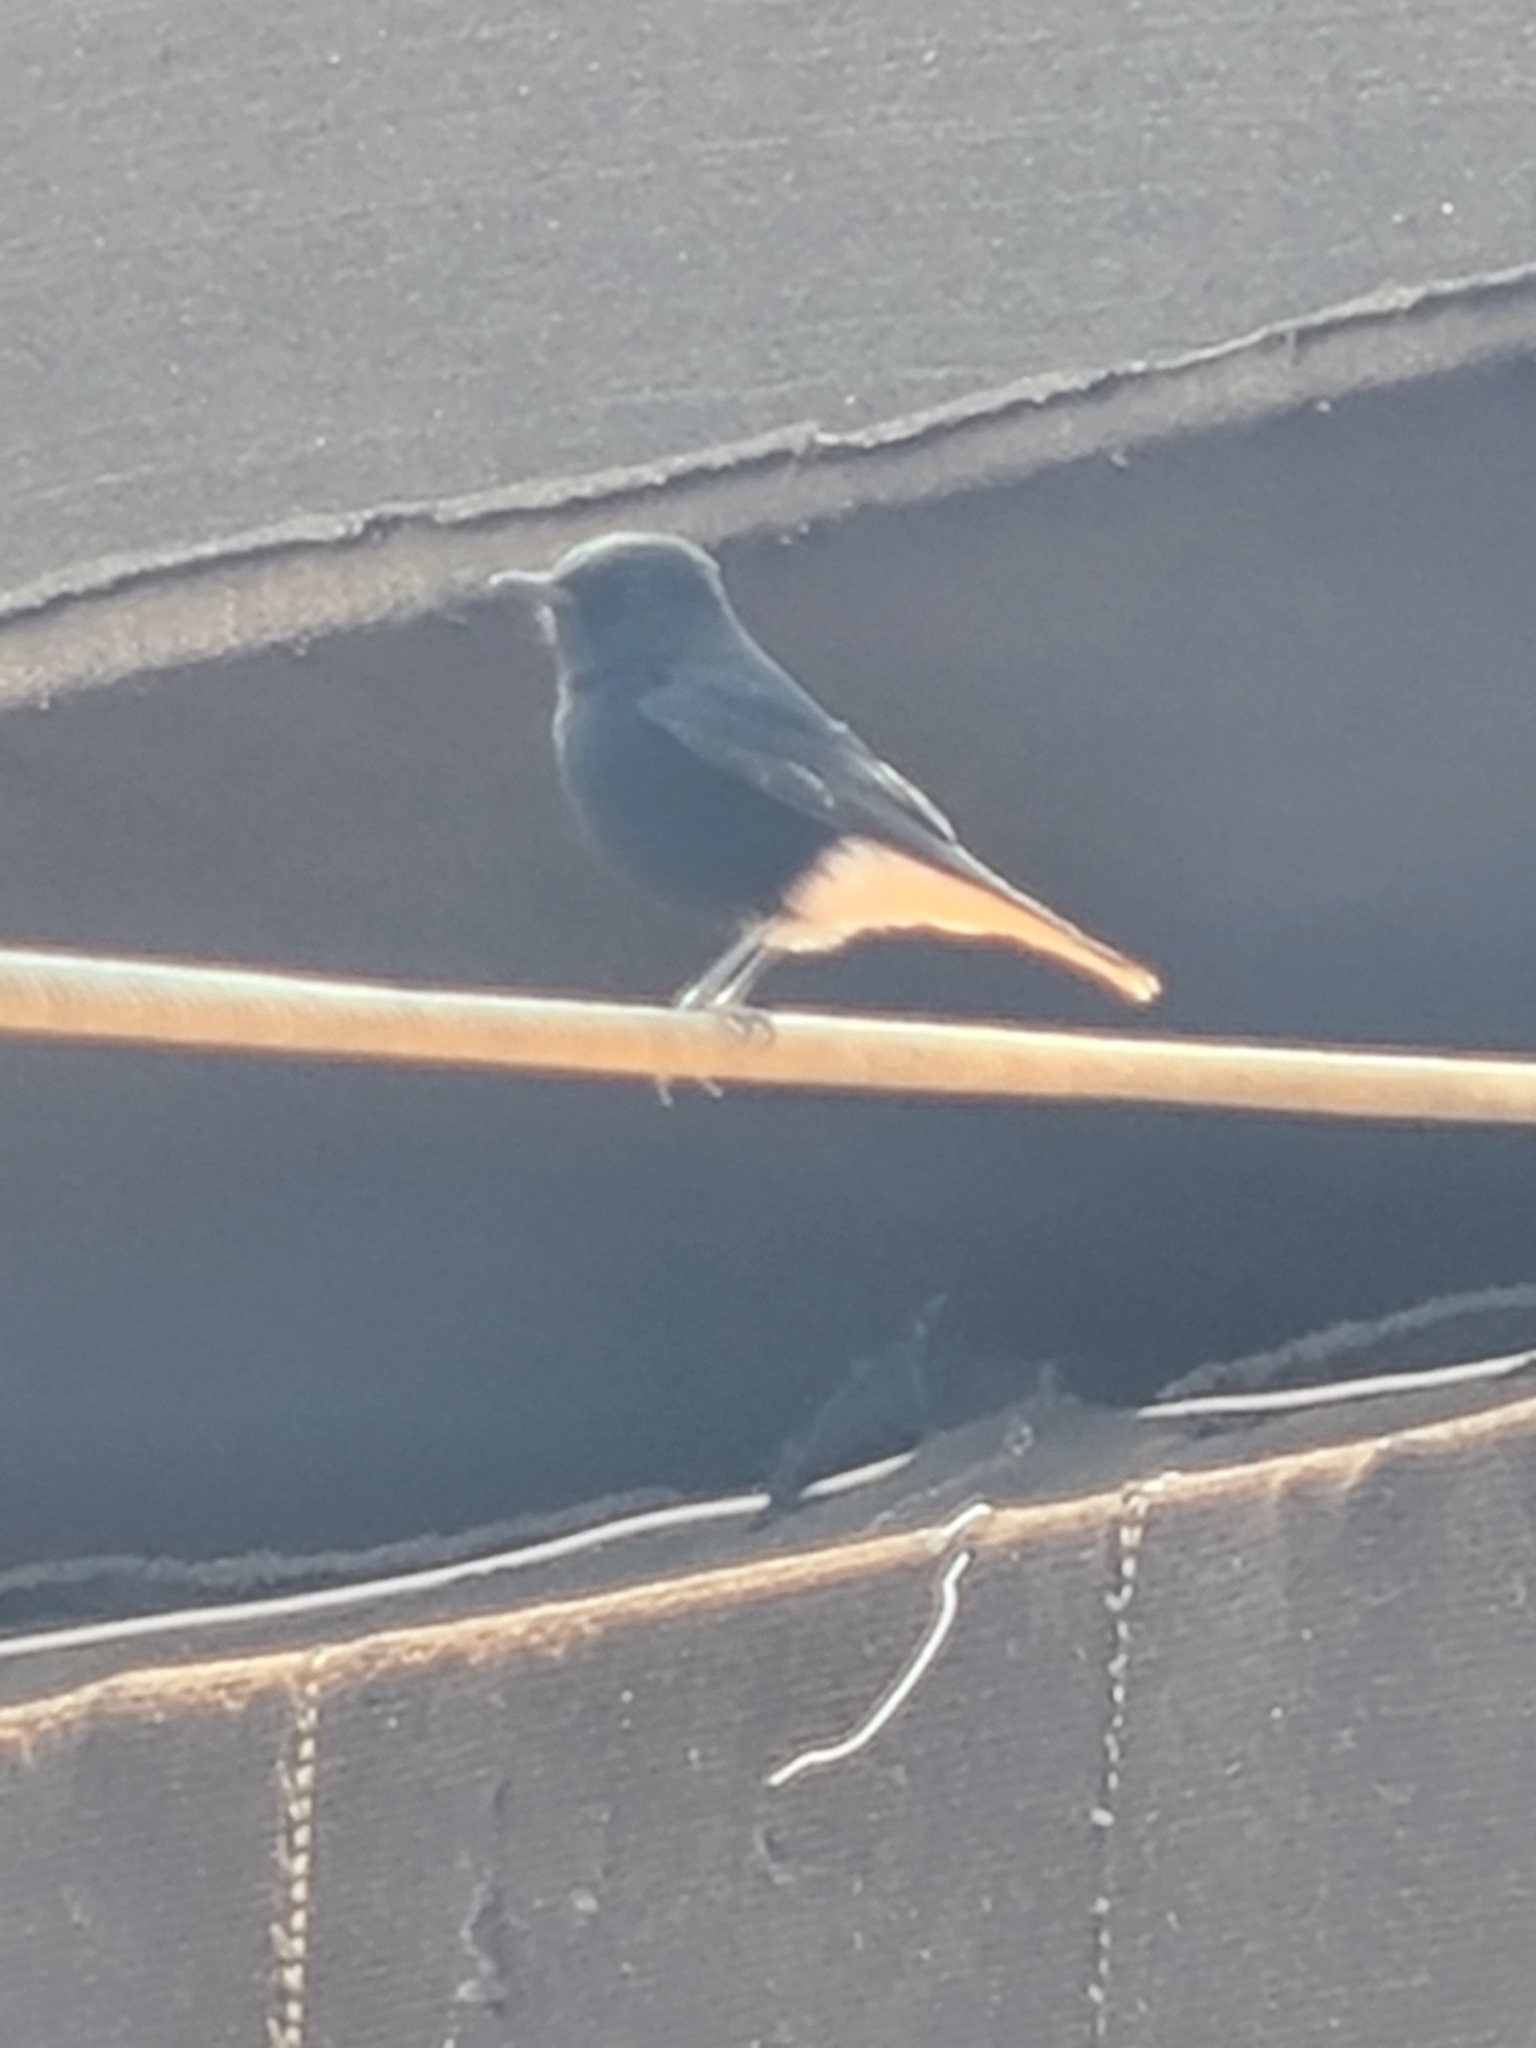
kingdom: Animalia
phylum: Chordata
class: Aves
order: Passeriformes
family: Muscicapidae
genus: Oenanthe
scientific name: Oenanthe leucopyga
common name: White-crowned wheatear
